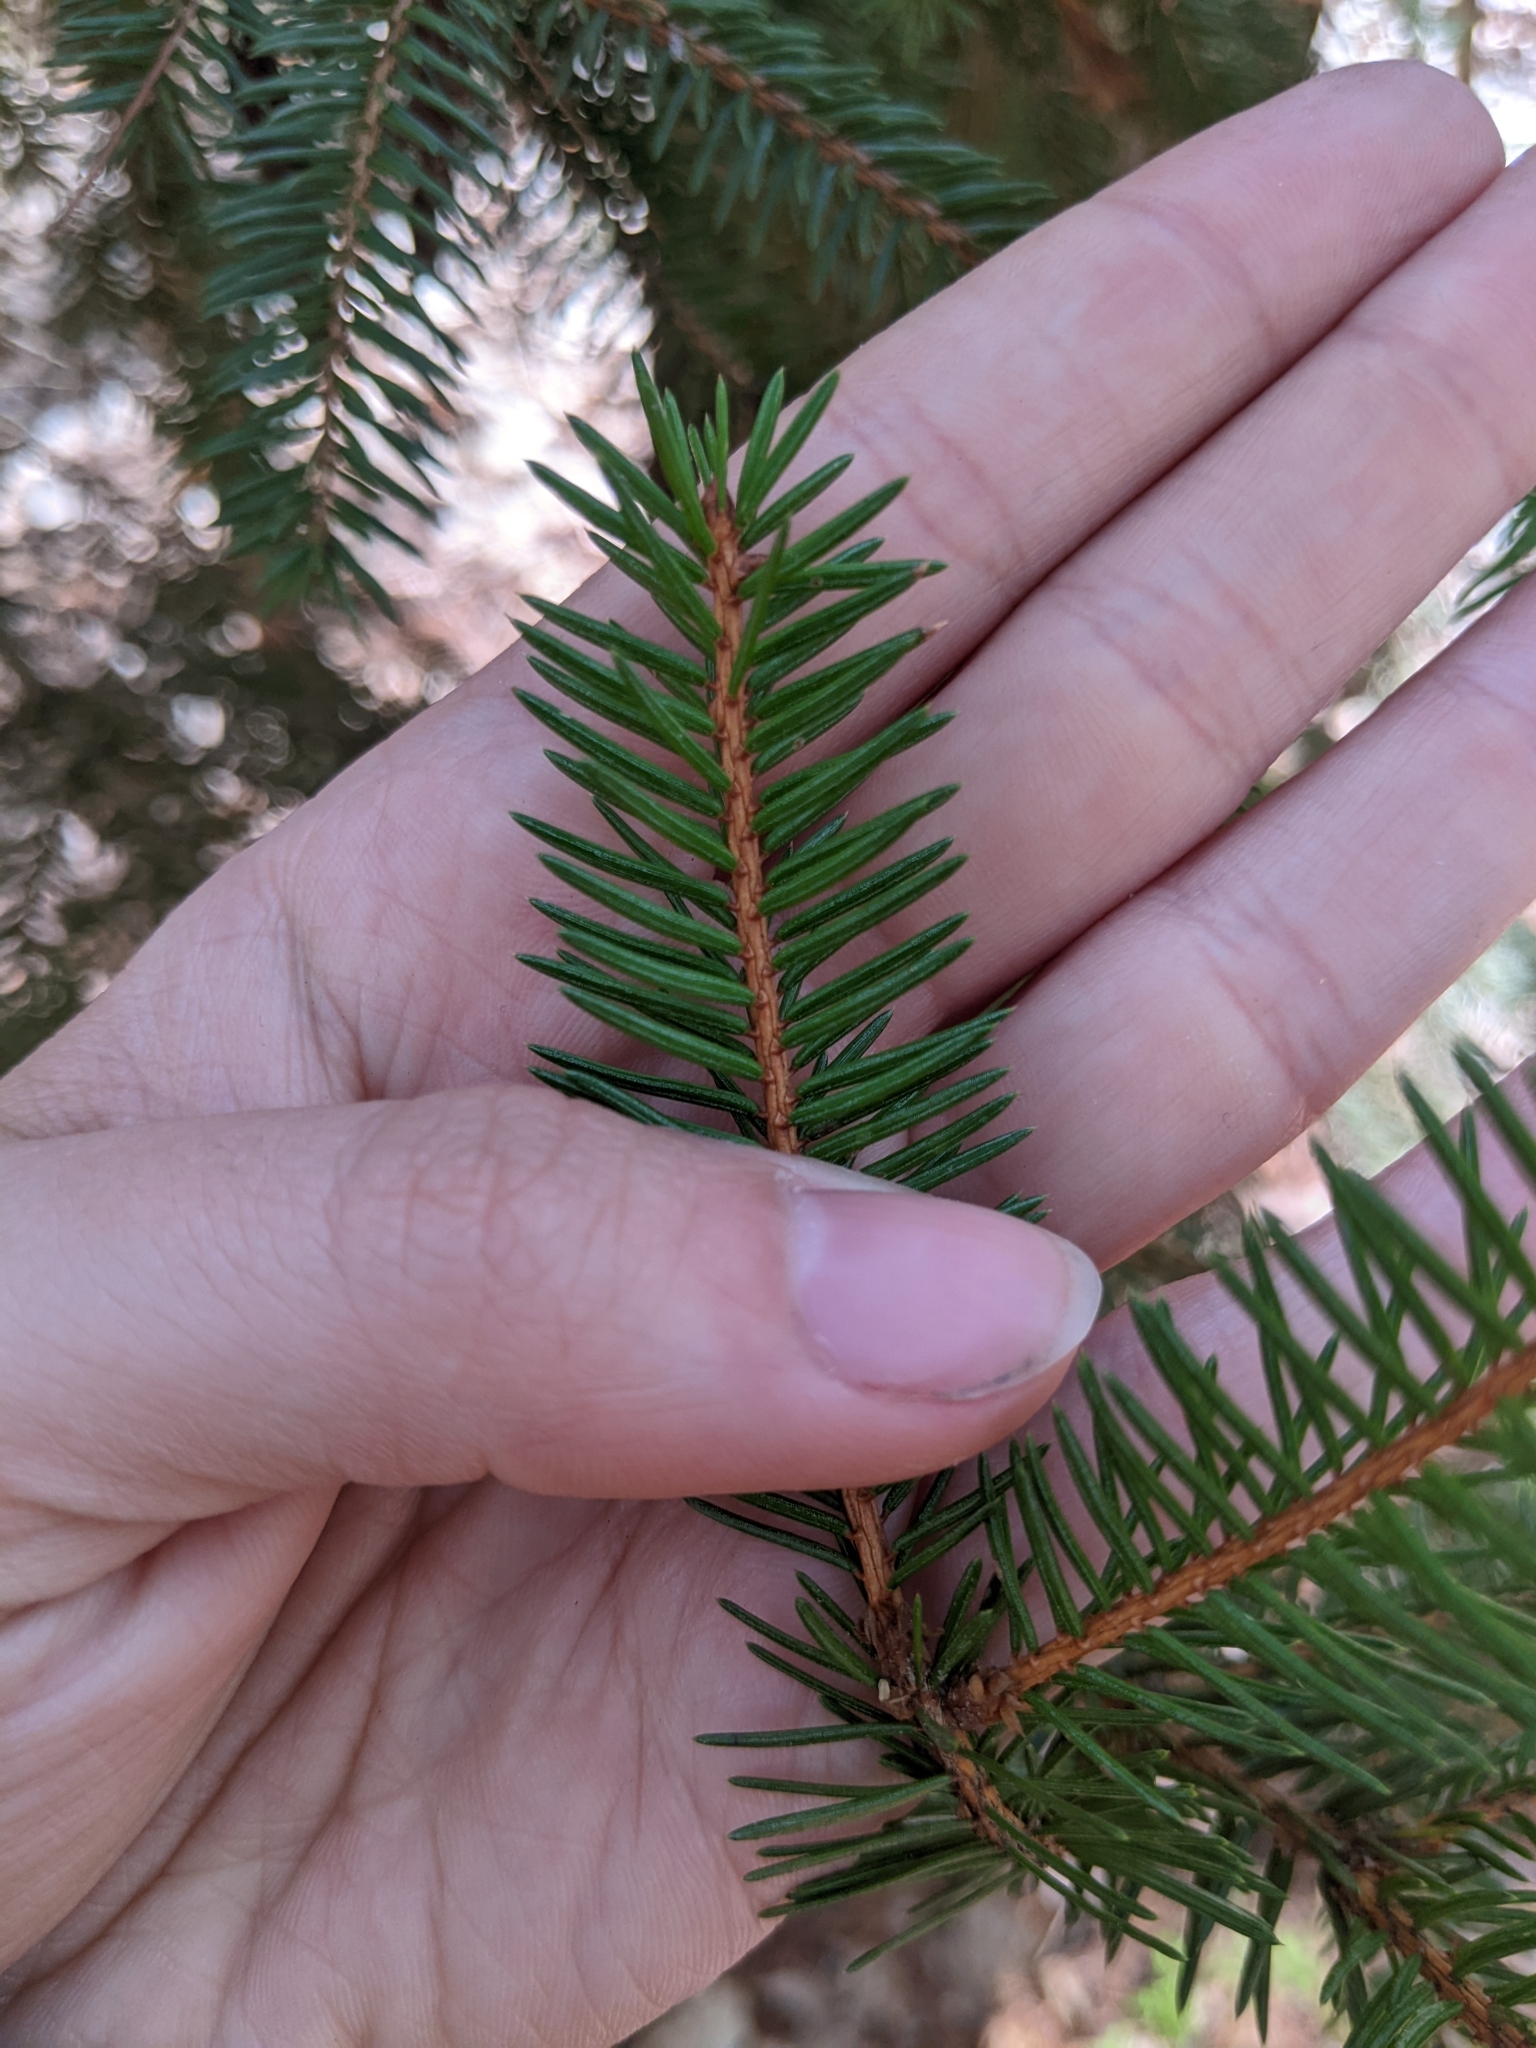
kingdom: Plantae
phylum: Tracheophyta
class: Pinopsida
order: Pinales
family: Pinaceae
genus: Picea
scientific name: Picea abies
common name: Norway spruce
